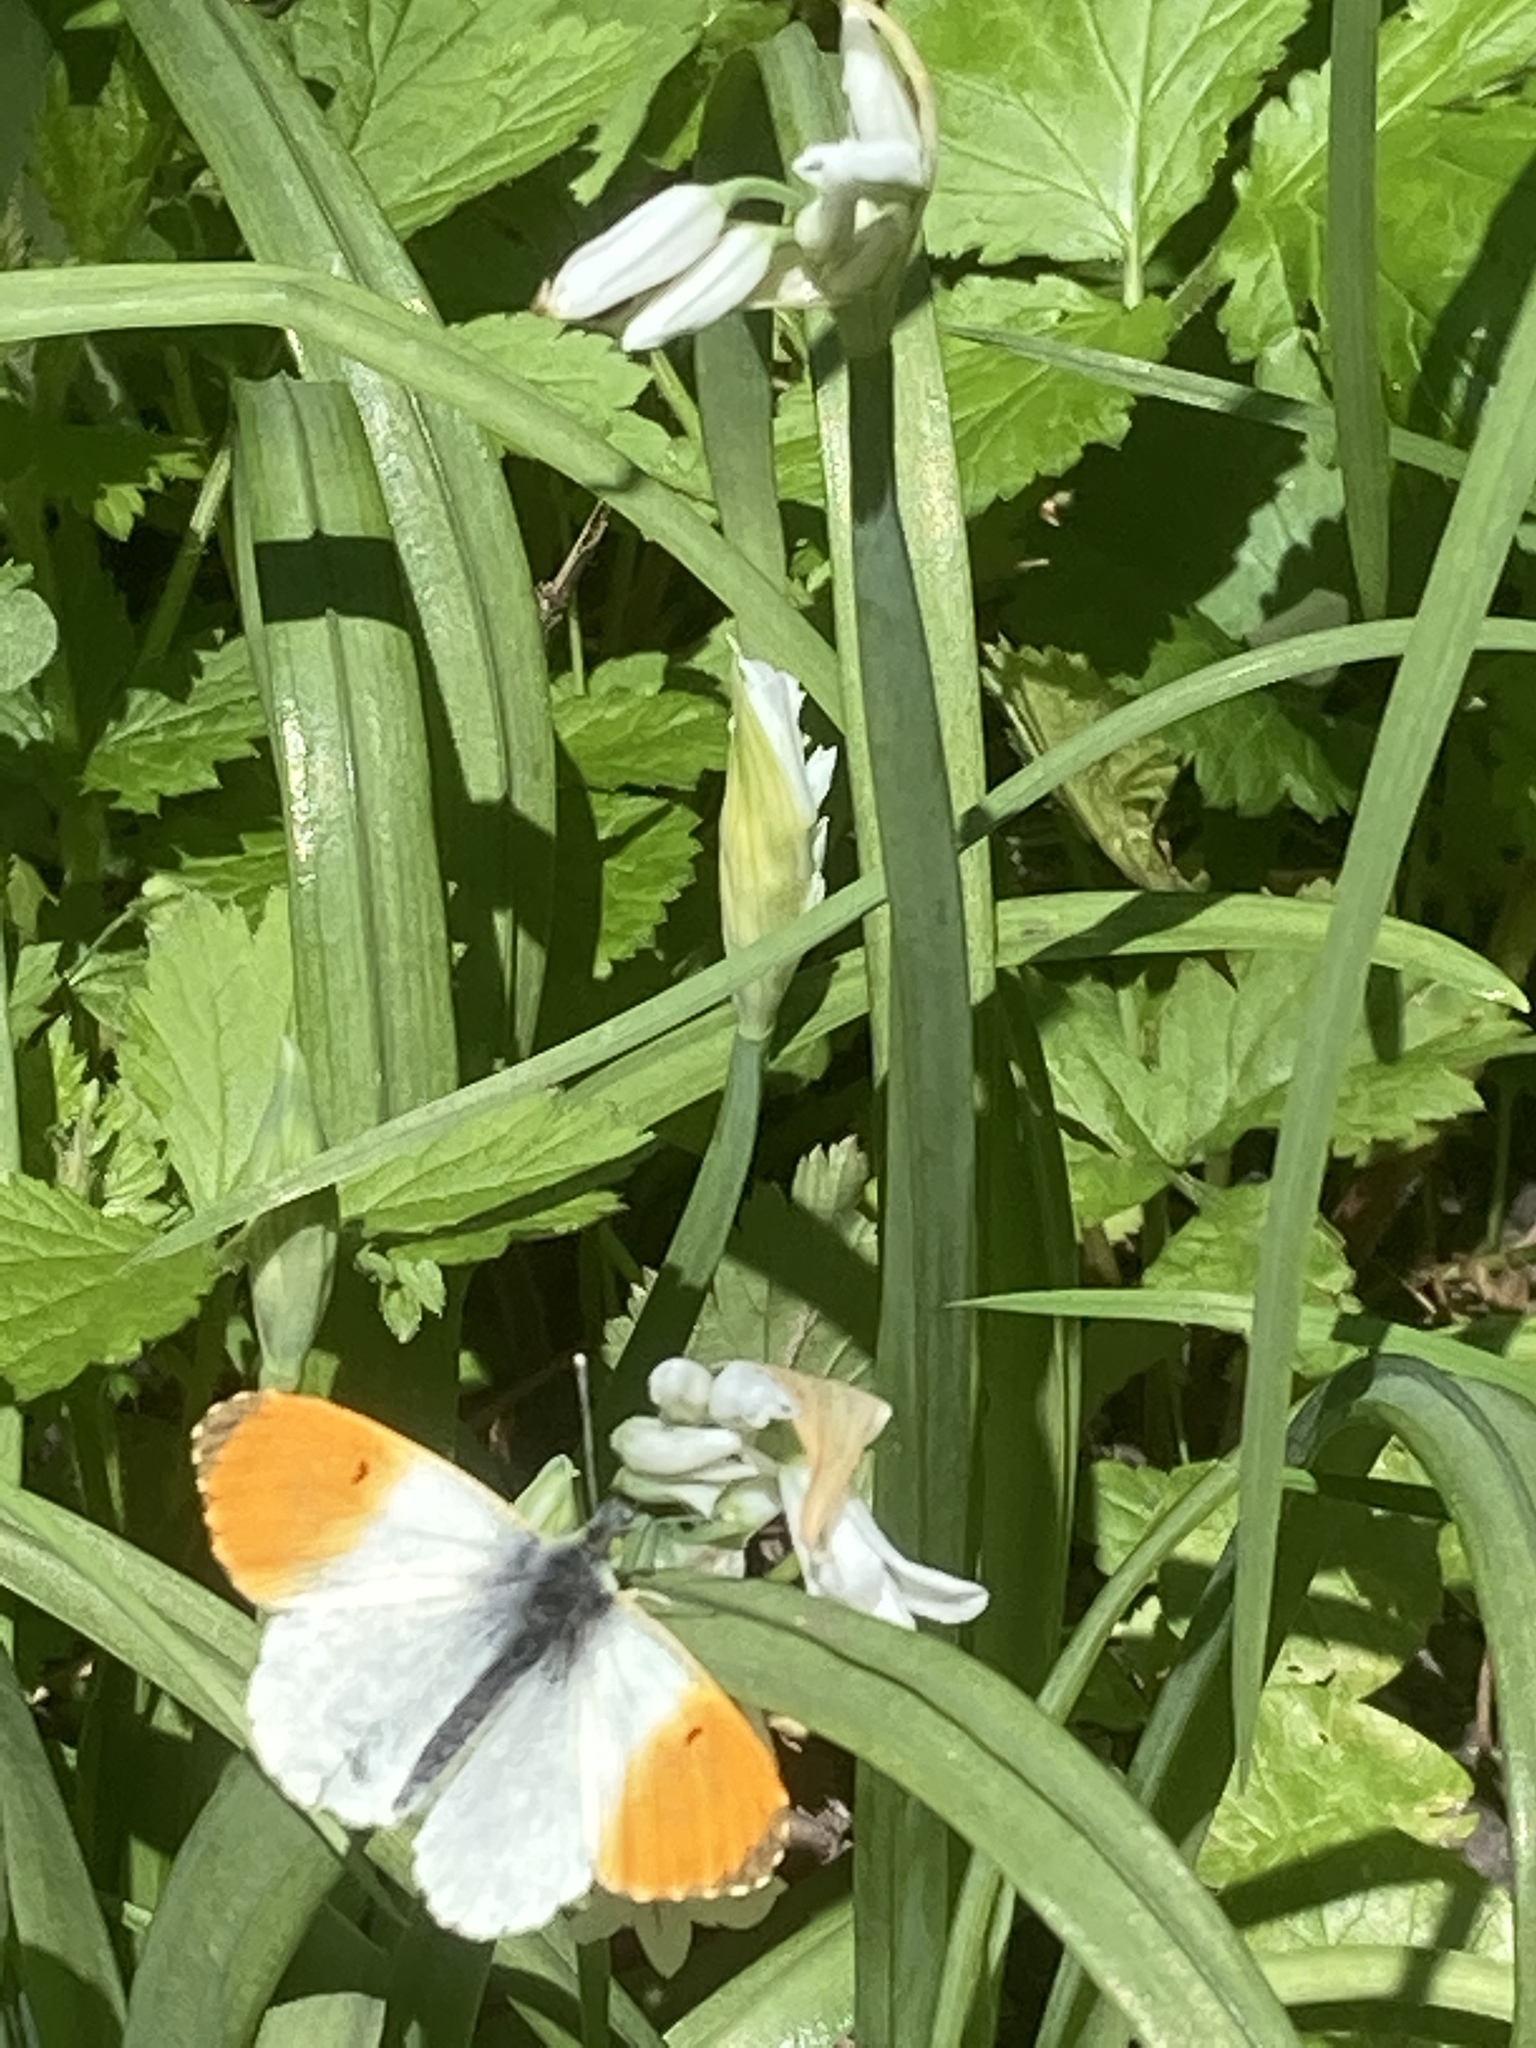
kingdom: Animalia
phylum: Arthropoda
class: Insecta
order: Lepidoptera
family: Pieridae
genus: Anthocharis
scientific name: Anthocharis cardamines
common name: Orange-tip
